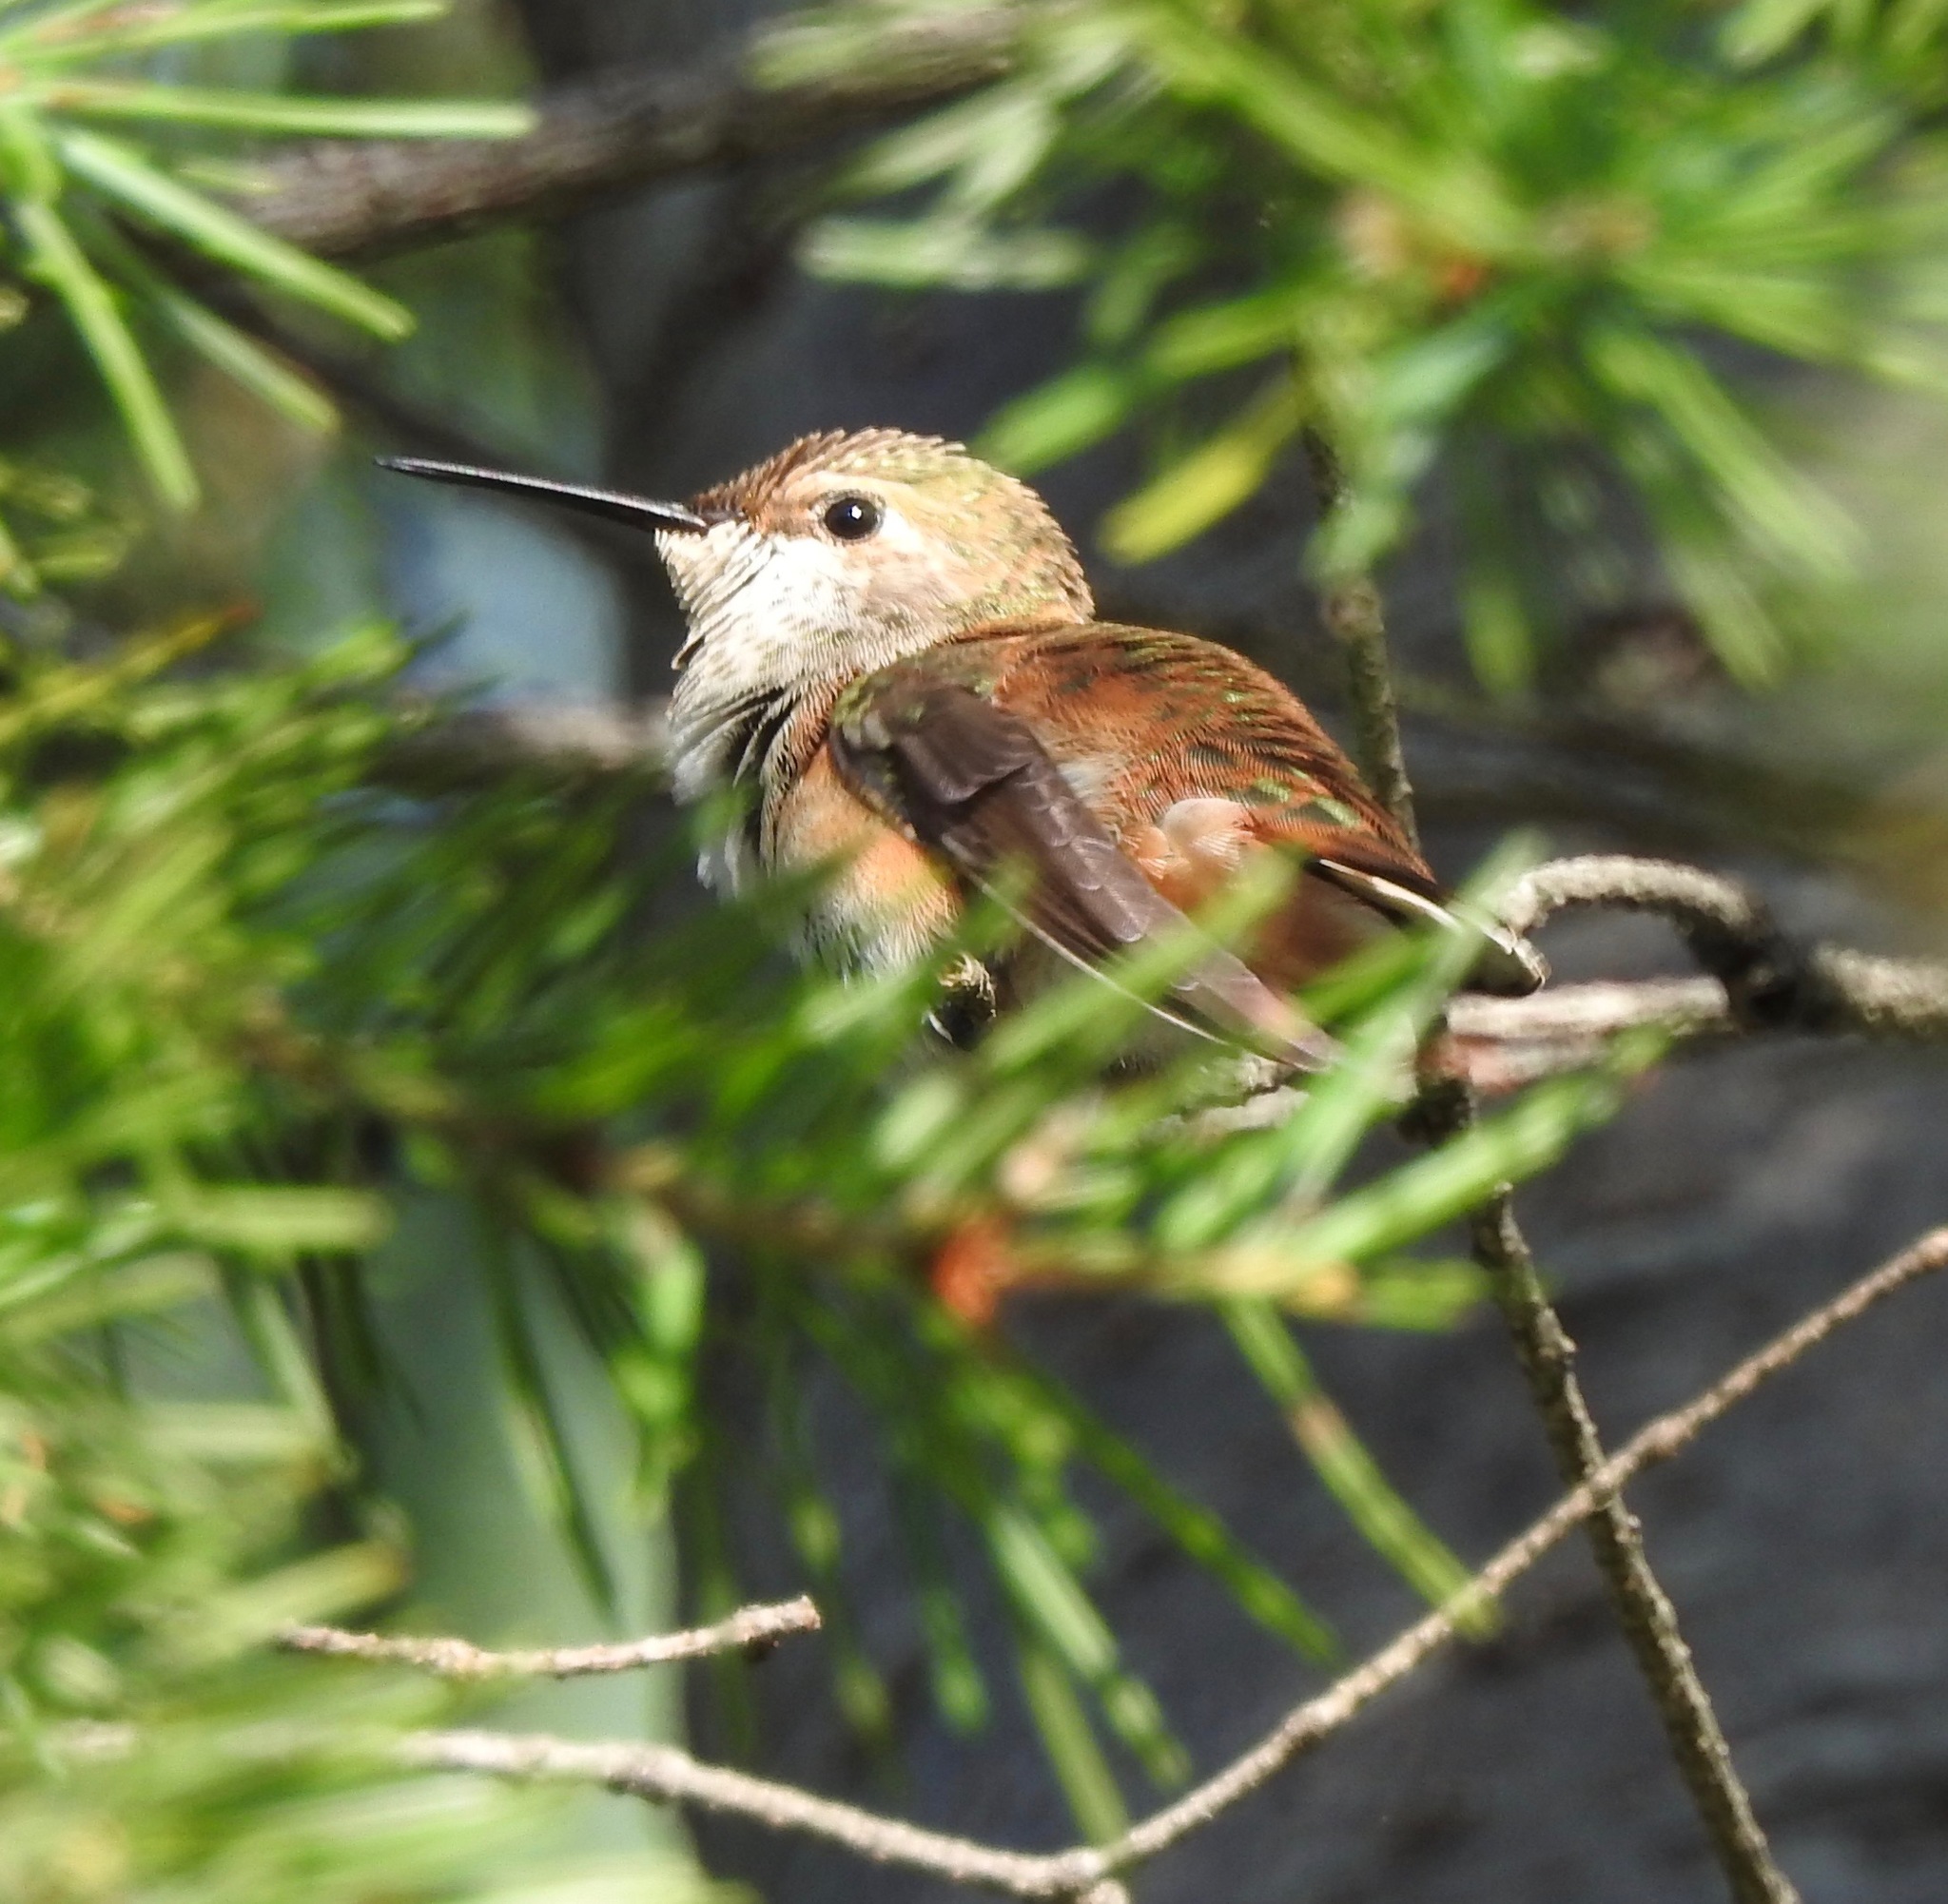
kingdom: Animalia
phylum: Chordata
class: Aves
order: Apodiformes
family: Trochilidae
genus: Selasphorus
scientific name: Selasphorus rufus
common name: Rufous hummingbird
